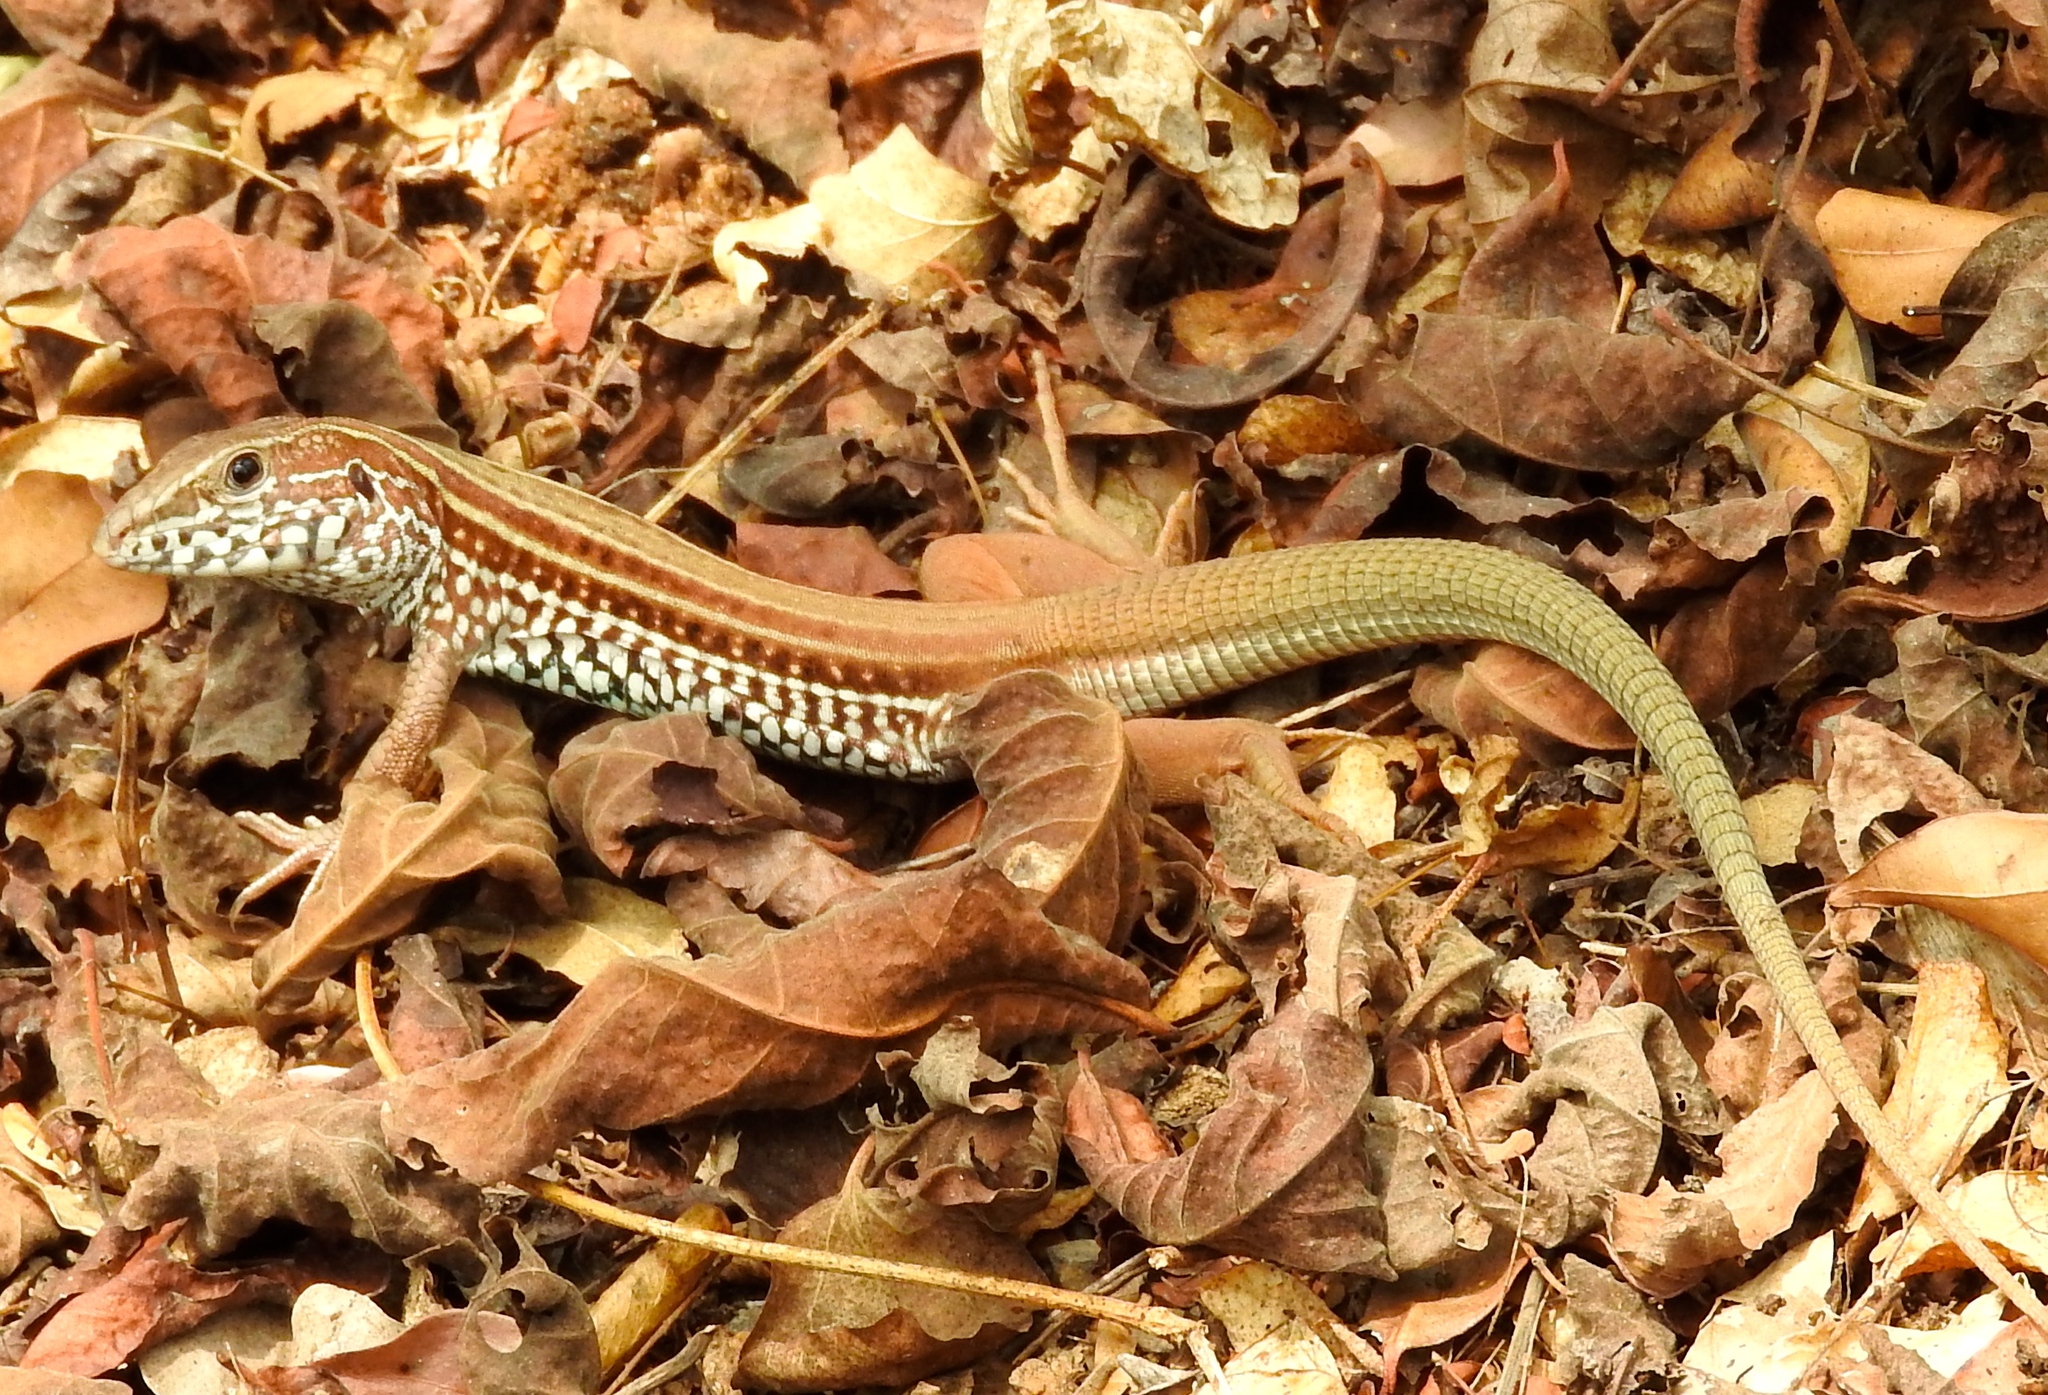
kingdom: Animalia
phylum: Chordata
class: Squamata
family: Teiidae
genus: Aspidoscelis
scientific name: Aspidoscelis costatus
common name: Western mexico whiptail
